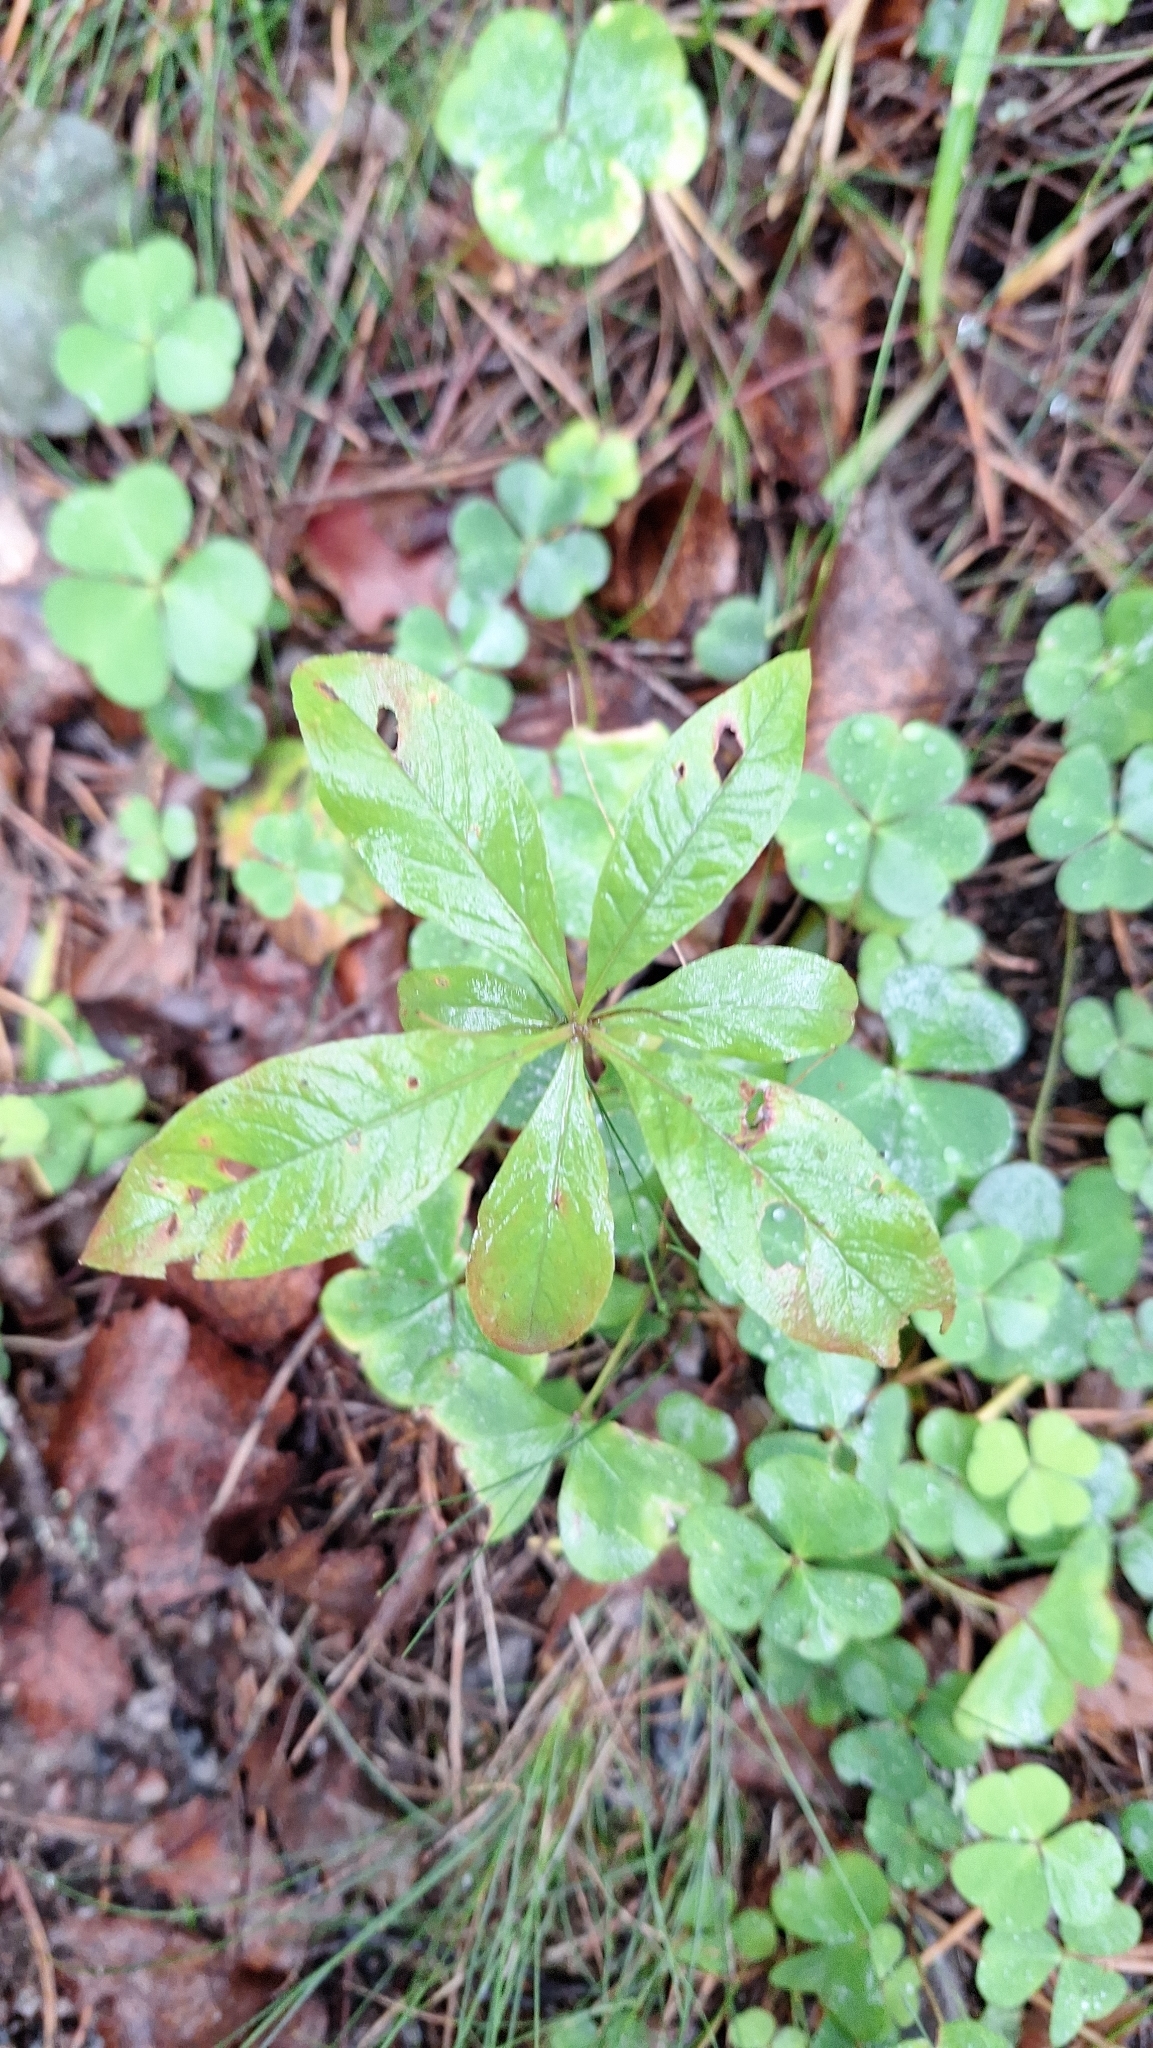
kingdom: Plantae
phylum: Tracheophyta
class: Magnoliopsida
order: Ericales
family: Primulaceae
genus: Lysimachia
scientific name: Lysimachia europaea
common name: Arctic starflower
